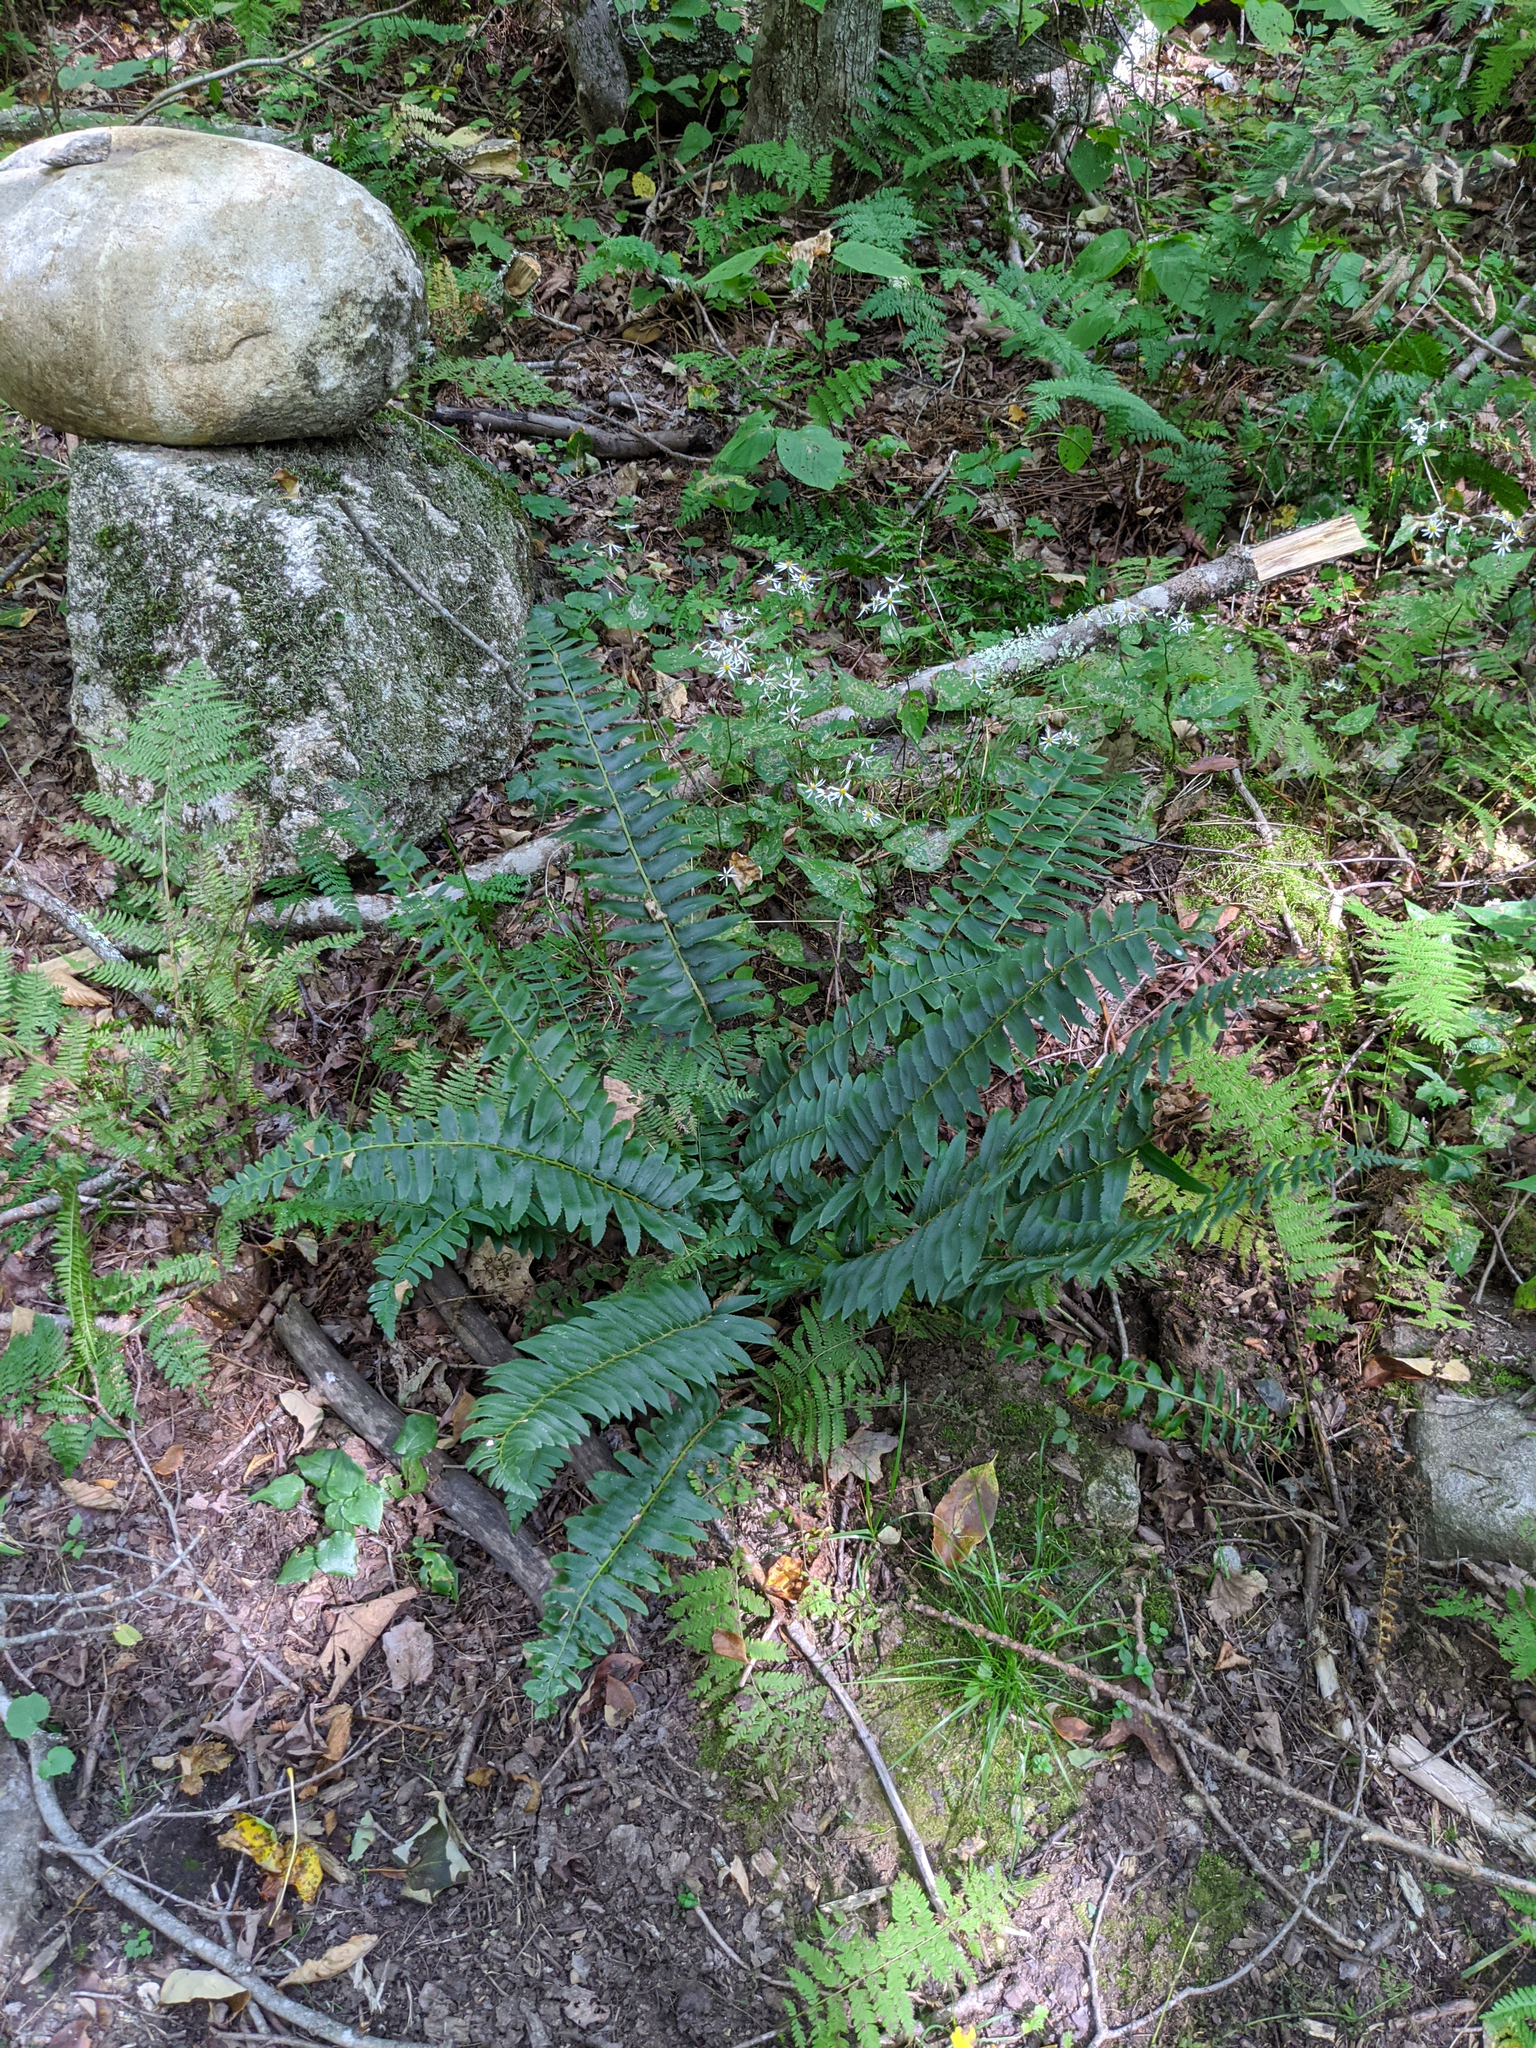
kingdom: Plantae
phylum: Tracheophyta
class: Polypodiopsida
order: Polypodiales
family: Dryopteridaceae
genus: Polystichum
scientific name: Polystichum acrostichoides
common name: Christmas fern
